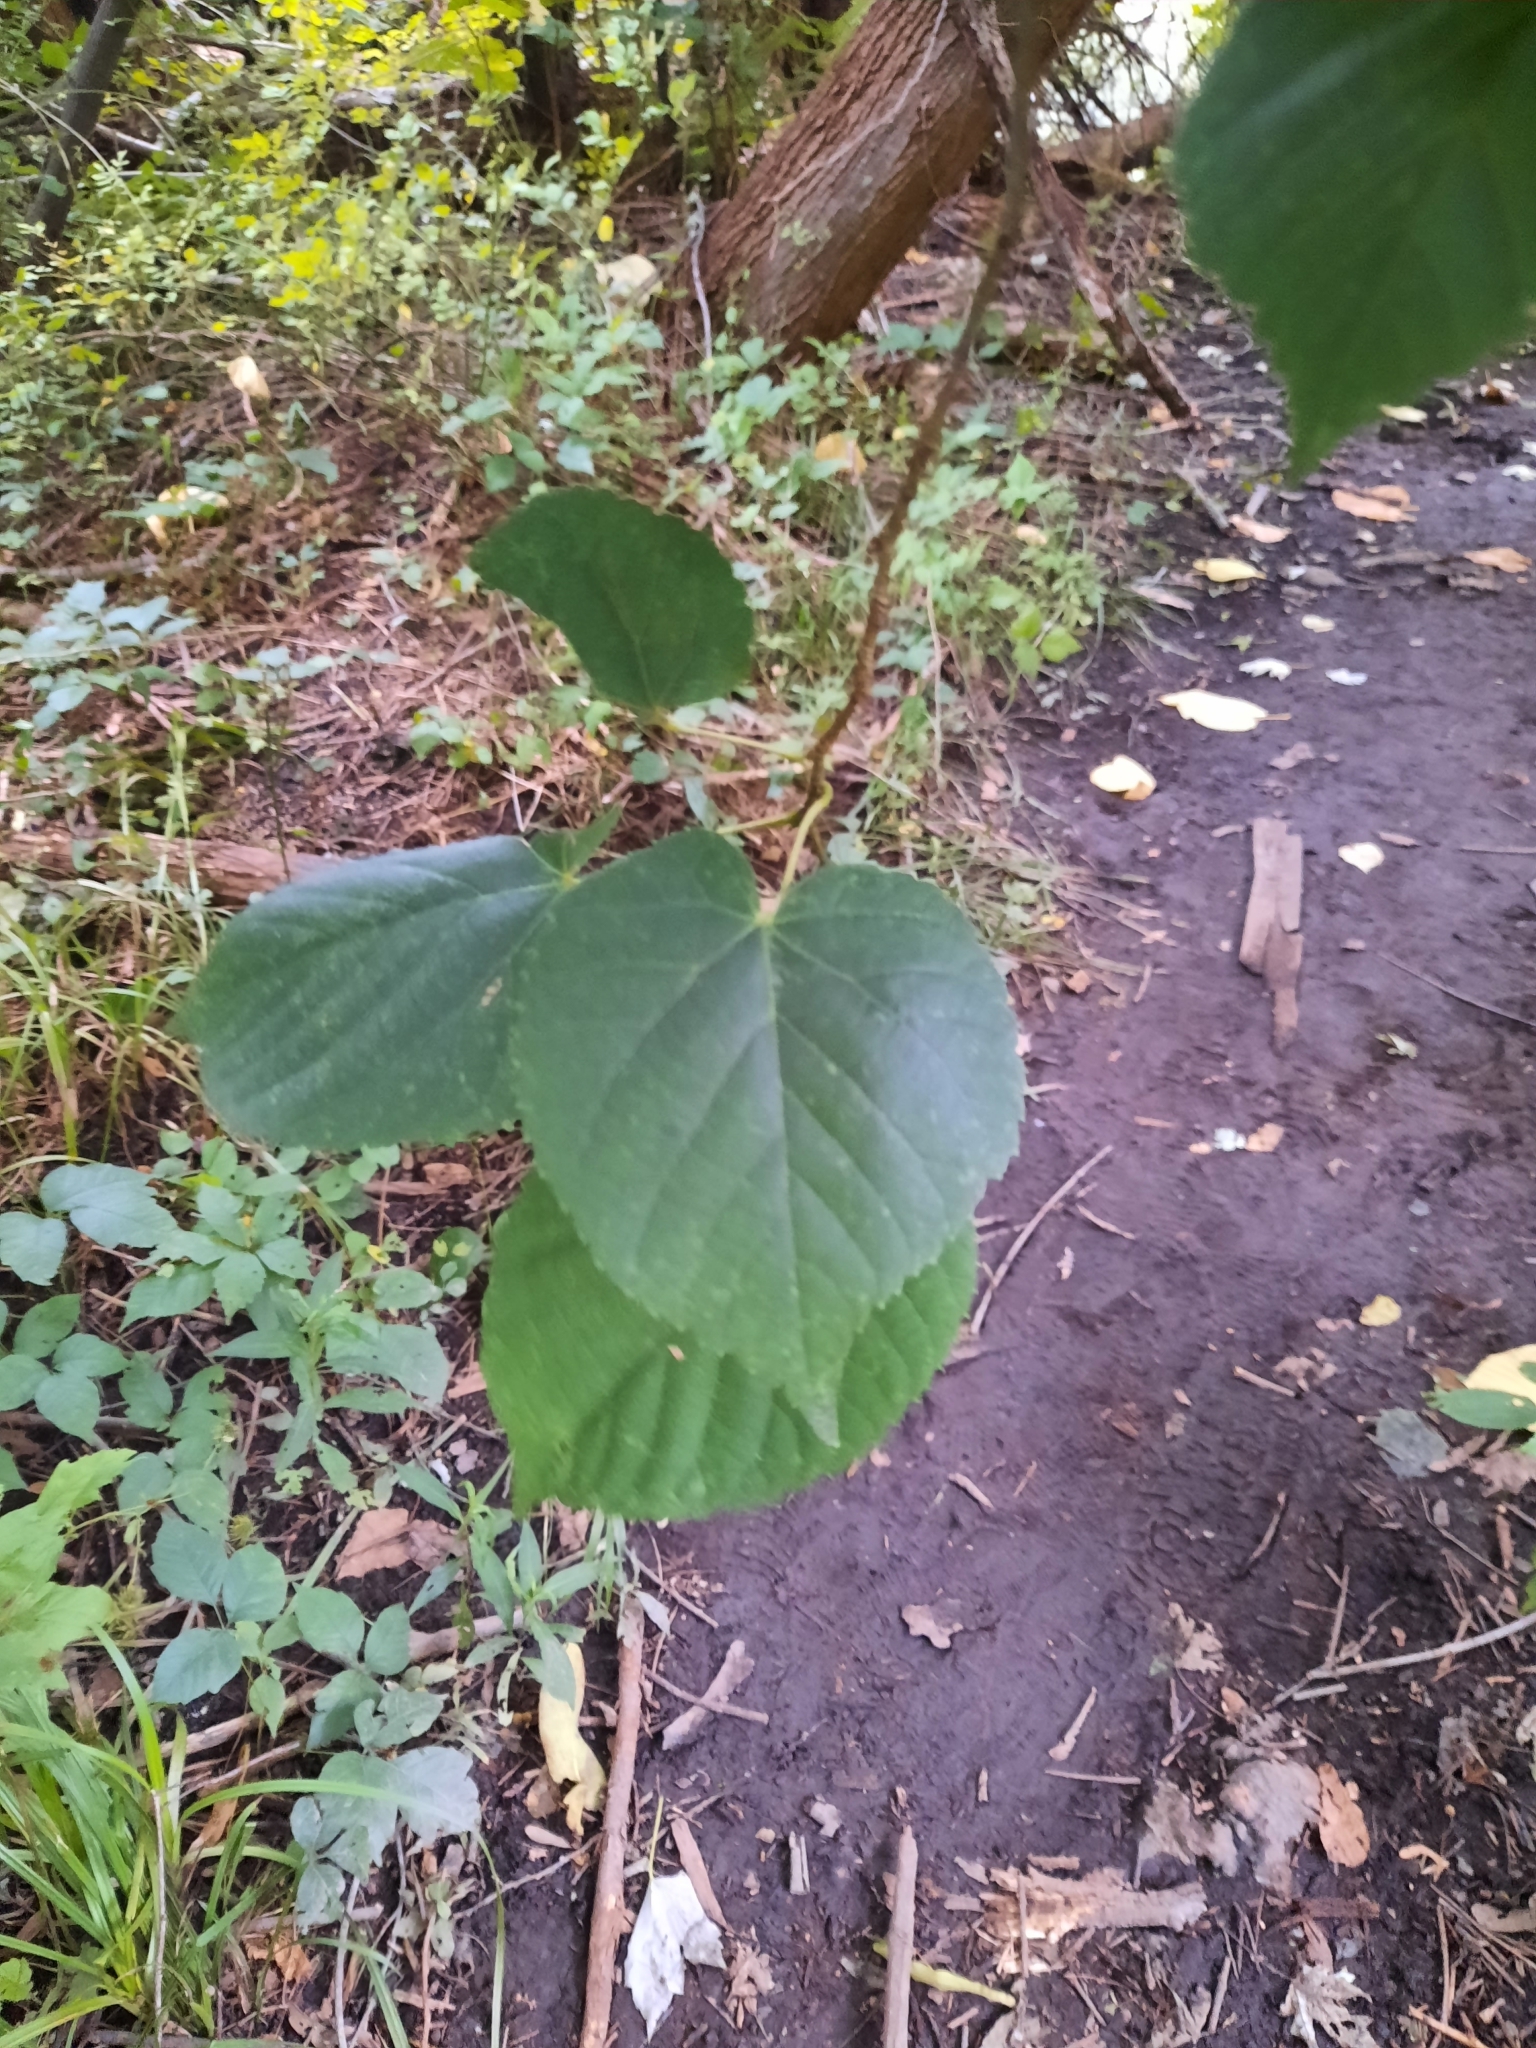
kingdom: Plantae
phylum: Tracheophyta
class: Magnoliopsida
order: Malvales
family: Malvaceae
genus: Tilia
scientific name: Tilia americana
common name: Basswood
